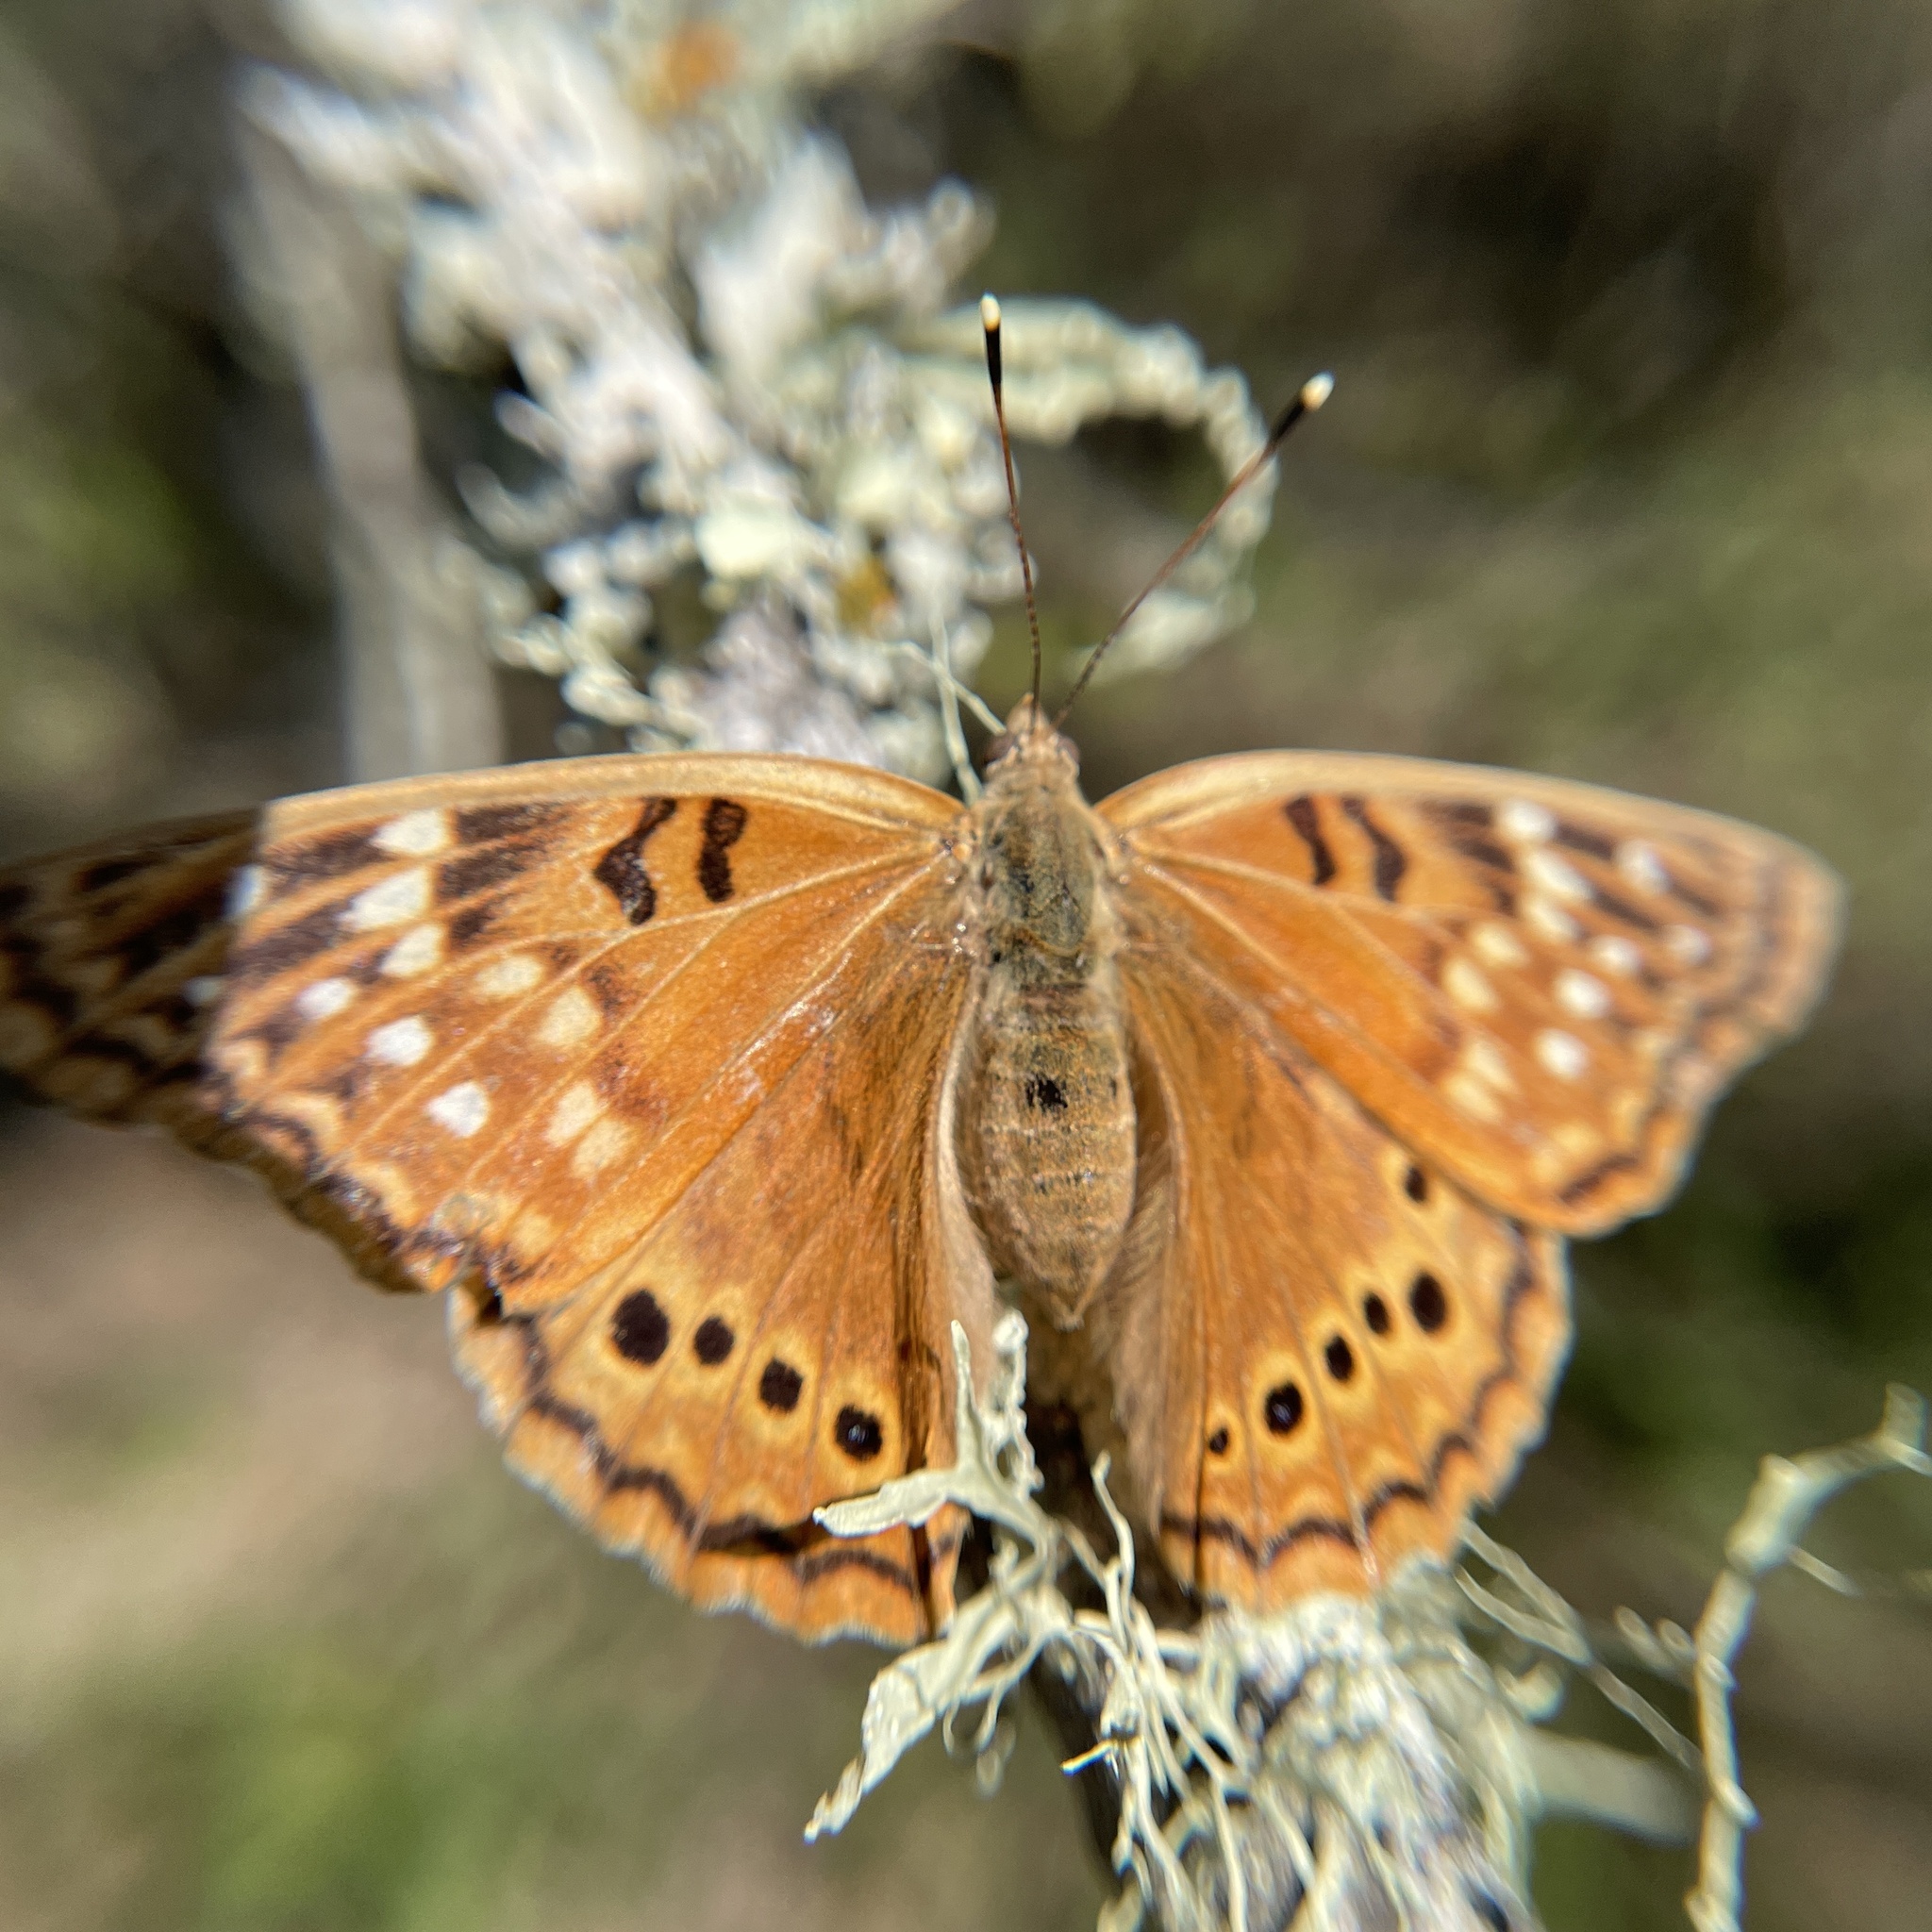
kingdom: Animalia
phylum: Arthropoda
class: Insecta
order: Lepidoptera
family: Nymphalidae
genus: Asterocampa
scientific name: Asterocampa clyton
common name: Tawny emperor
